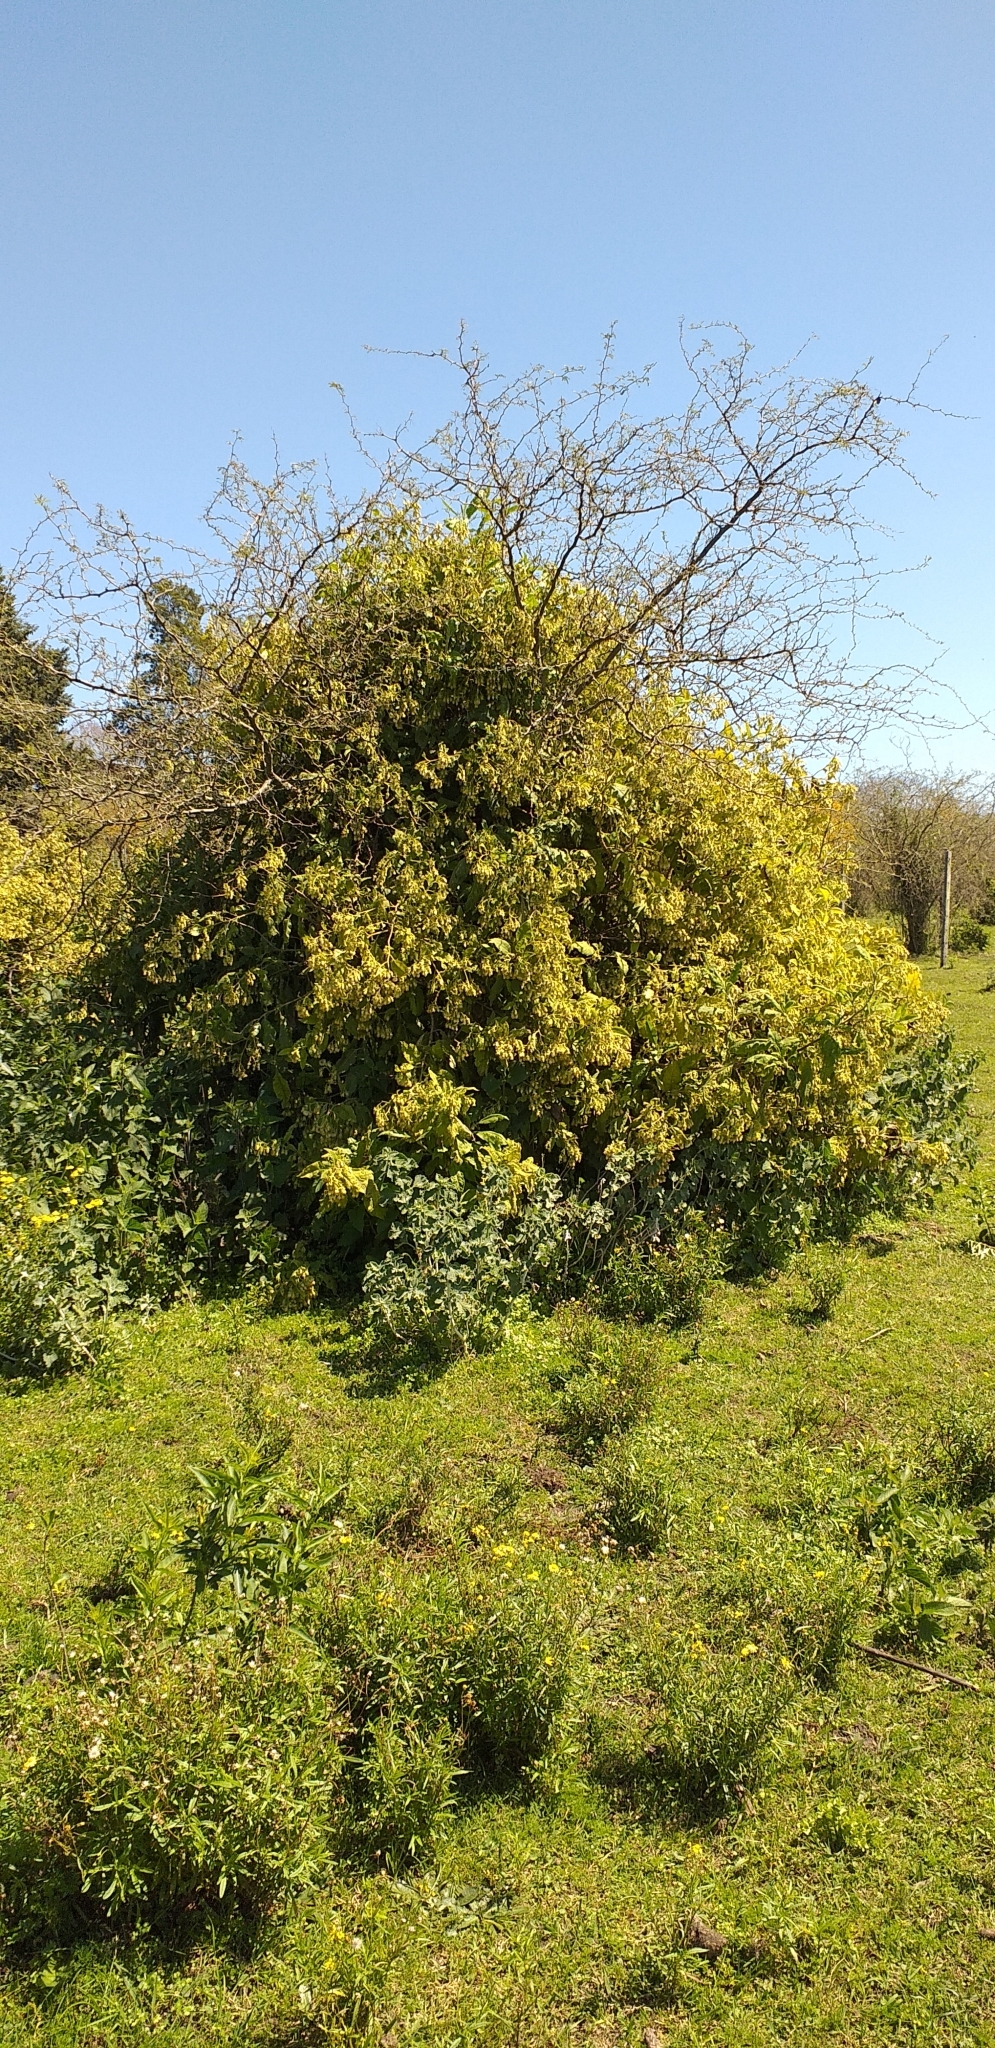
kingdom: Plantae
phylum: Tracheophyta
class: Magnoliopsida
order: Asterales
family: Asteraceae
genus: Trixis
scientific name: Trixis praestans
